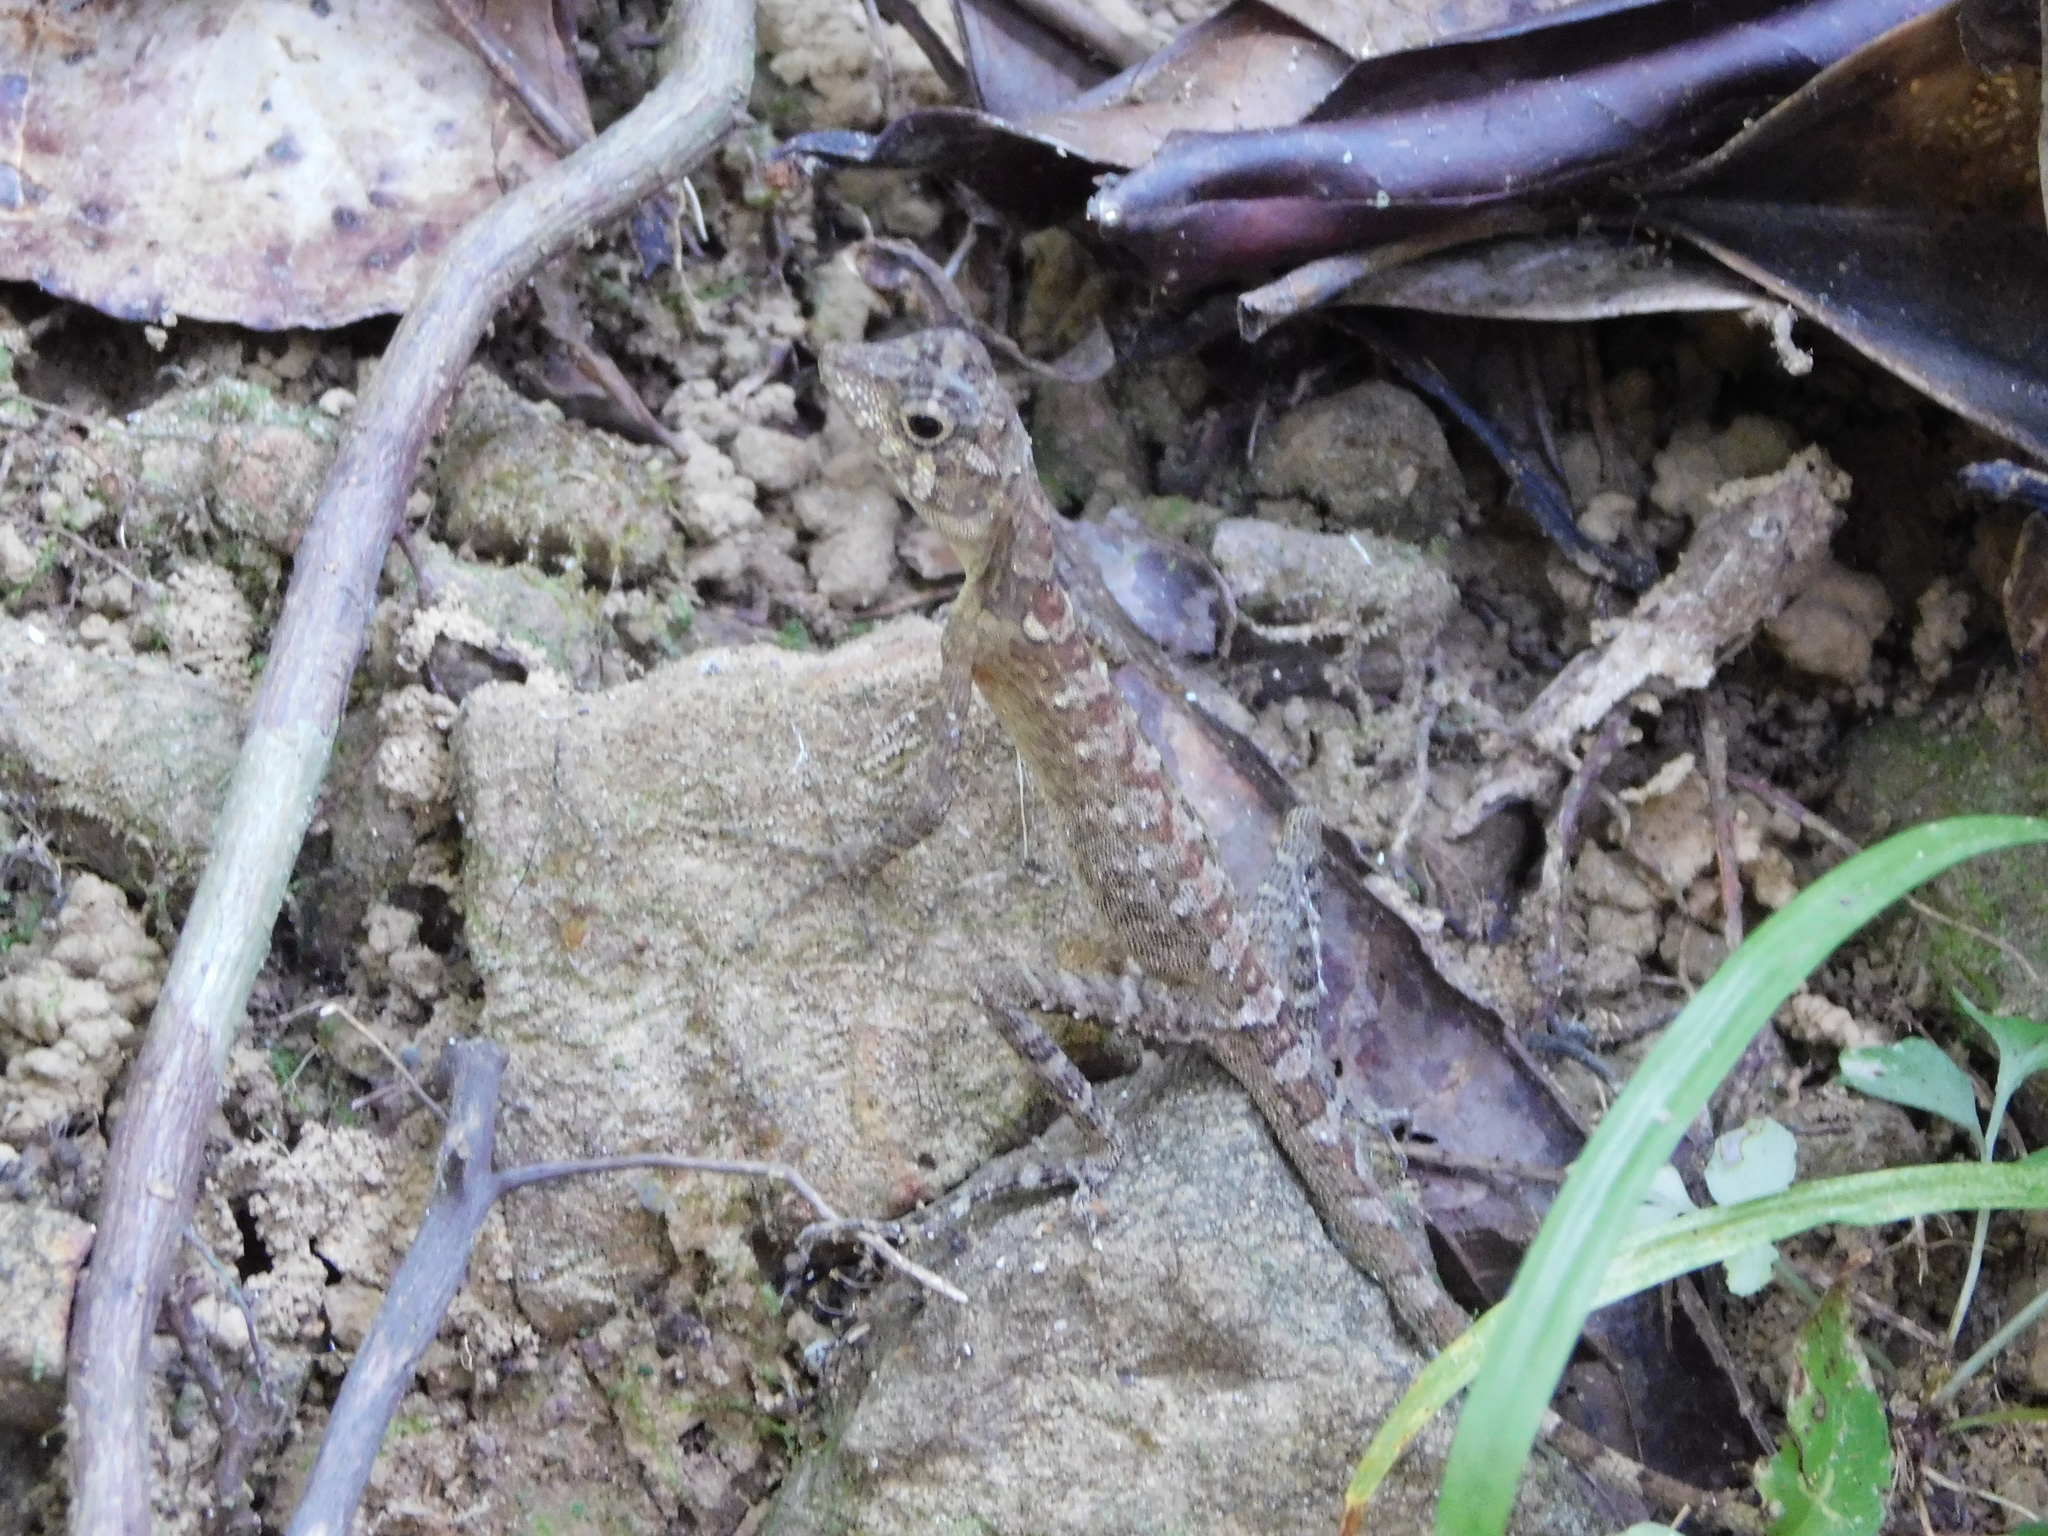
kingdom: Animalia
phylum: Chordata
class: Squamata
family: Agamidae
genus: Coryphophylax
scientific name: Coryphophylax subcristatus
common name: Short-crested bay island forest lizard
